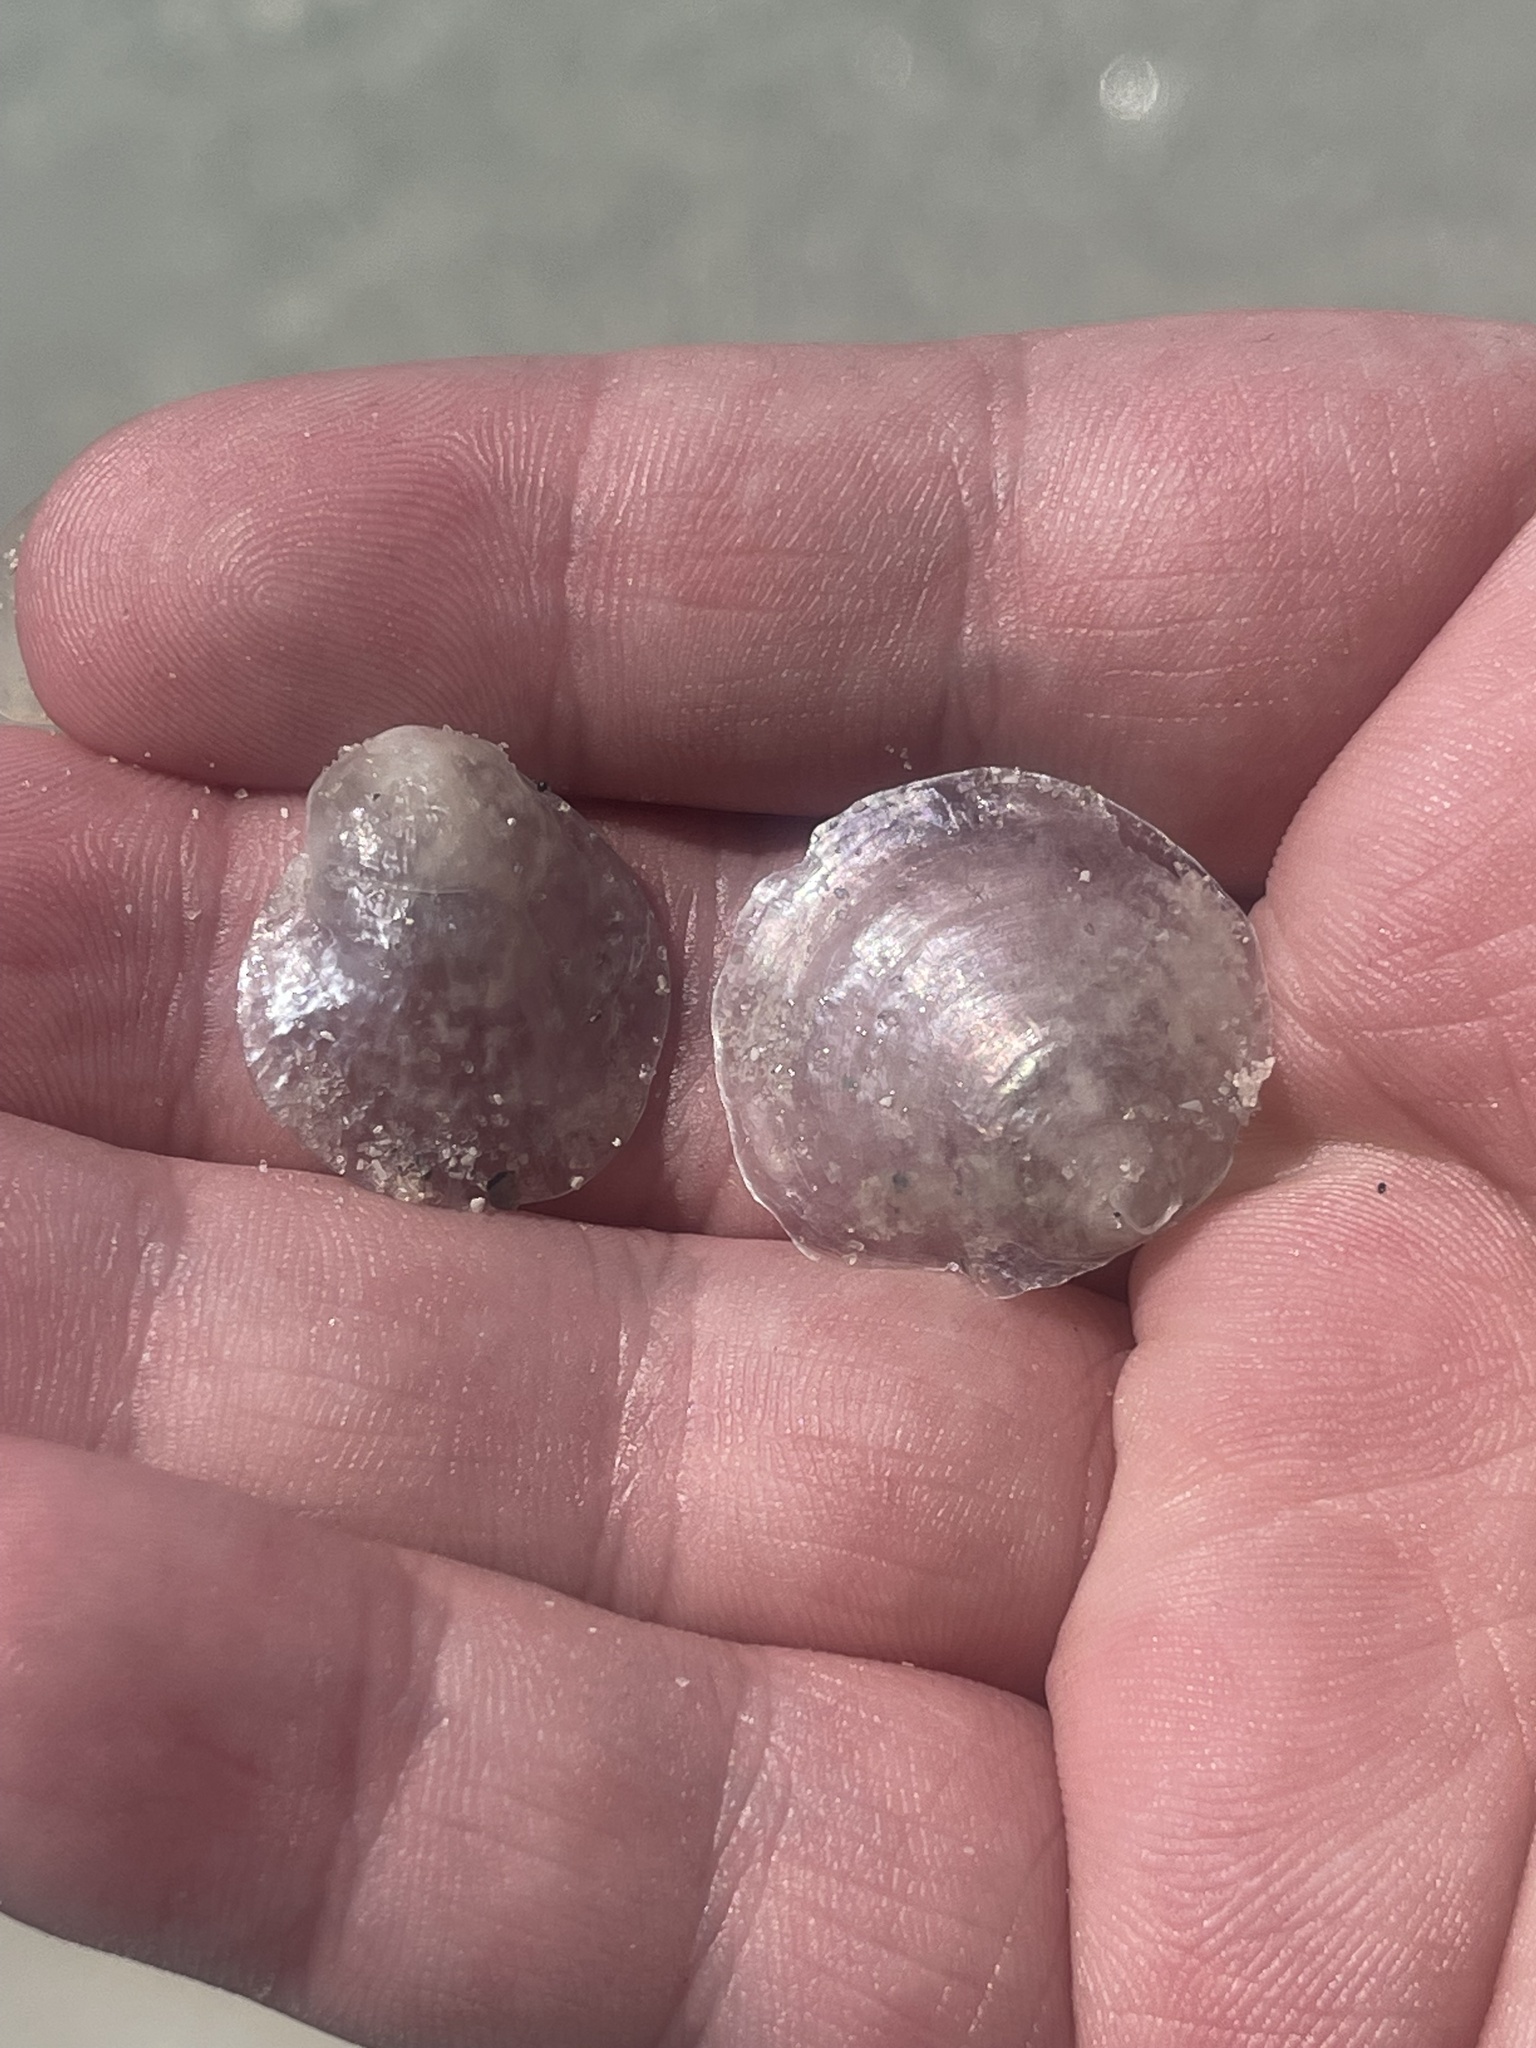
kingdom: Animalia
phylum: Mollusca
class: Bivalvia
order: Pectinida
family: Anomiidae
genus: Anomia
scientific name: Anomia simplex
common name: Common jingle shell
